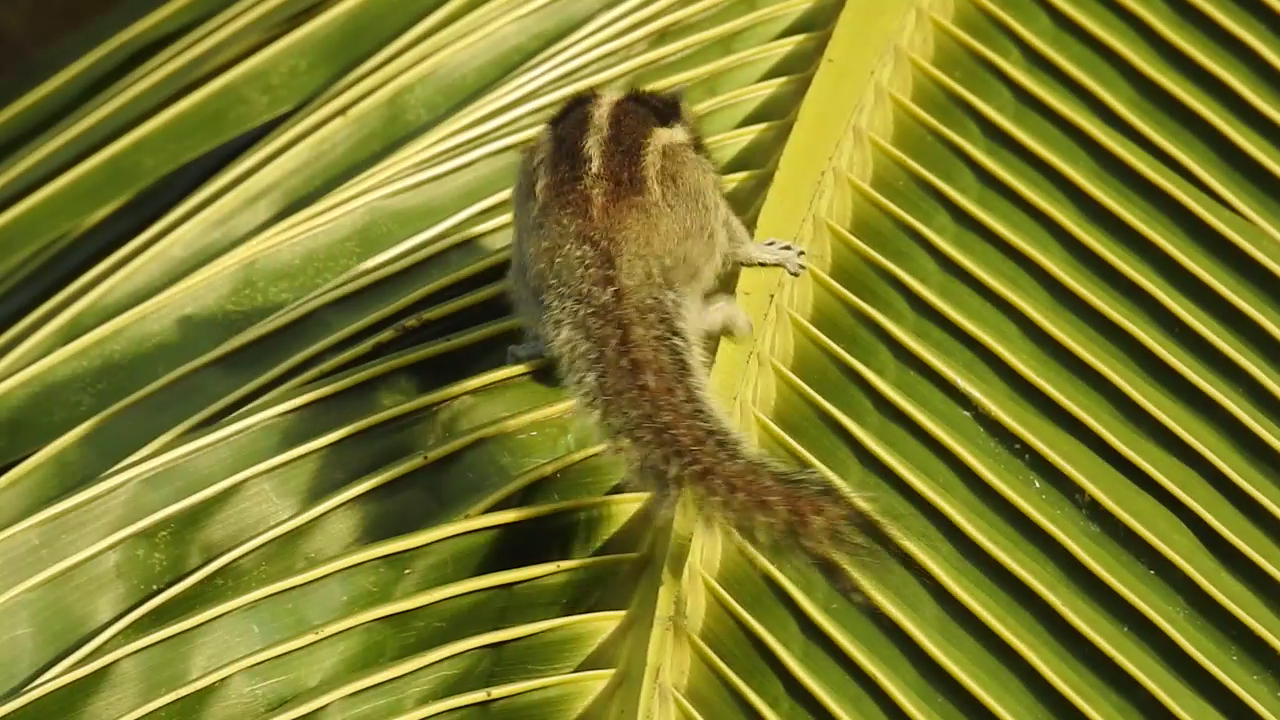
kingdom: Animalia
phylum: Chordata
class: Mammalia
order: Rodentia
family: Sciuridae
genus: Funambulus
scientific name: Funambulus palmarum
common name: Indian palm squirrel
